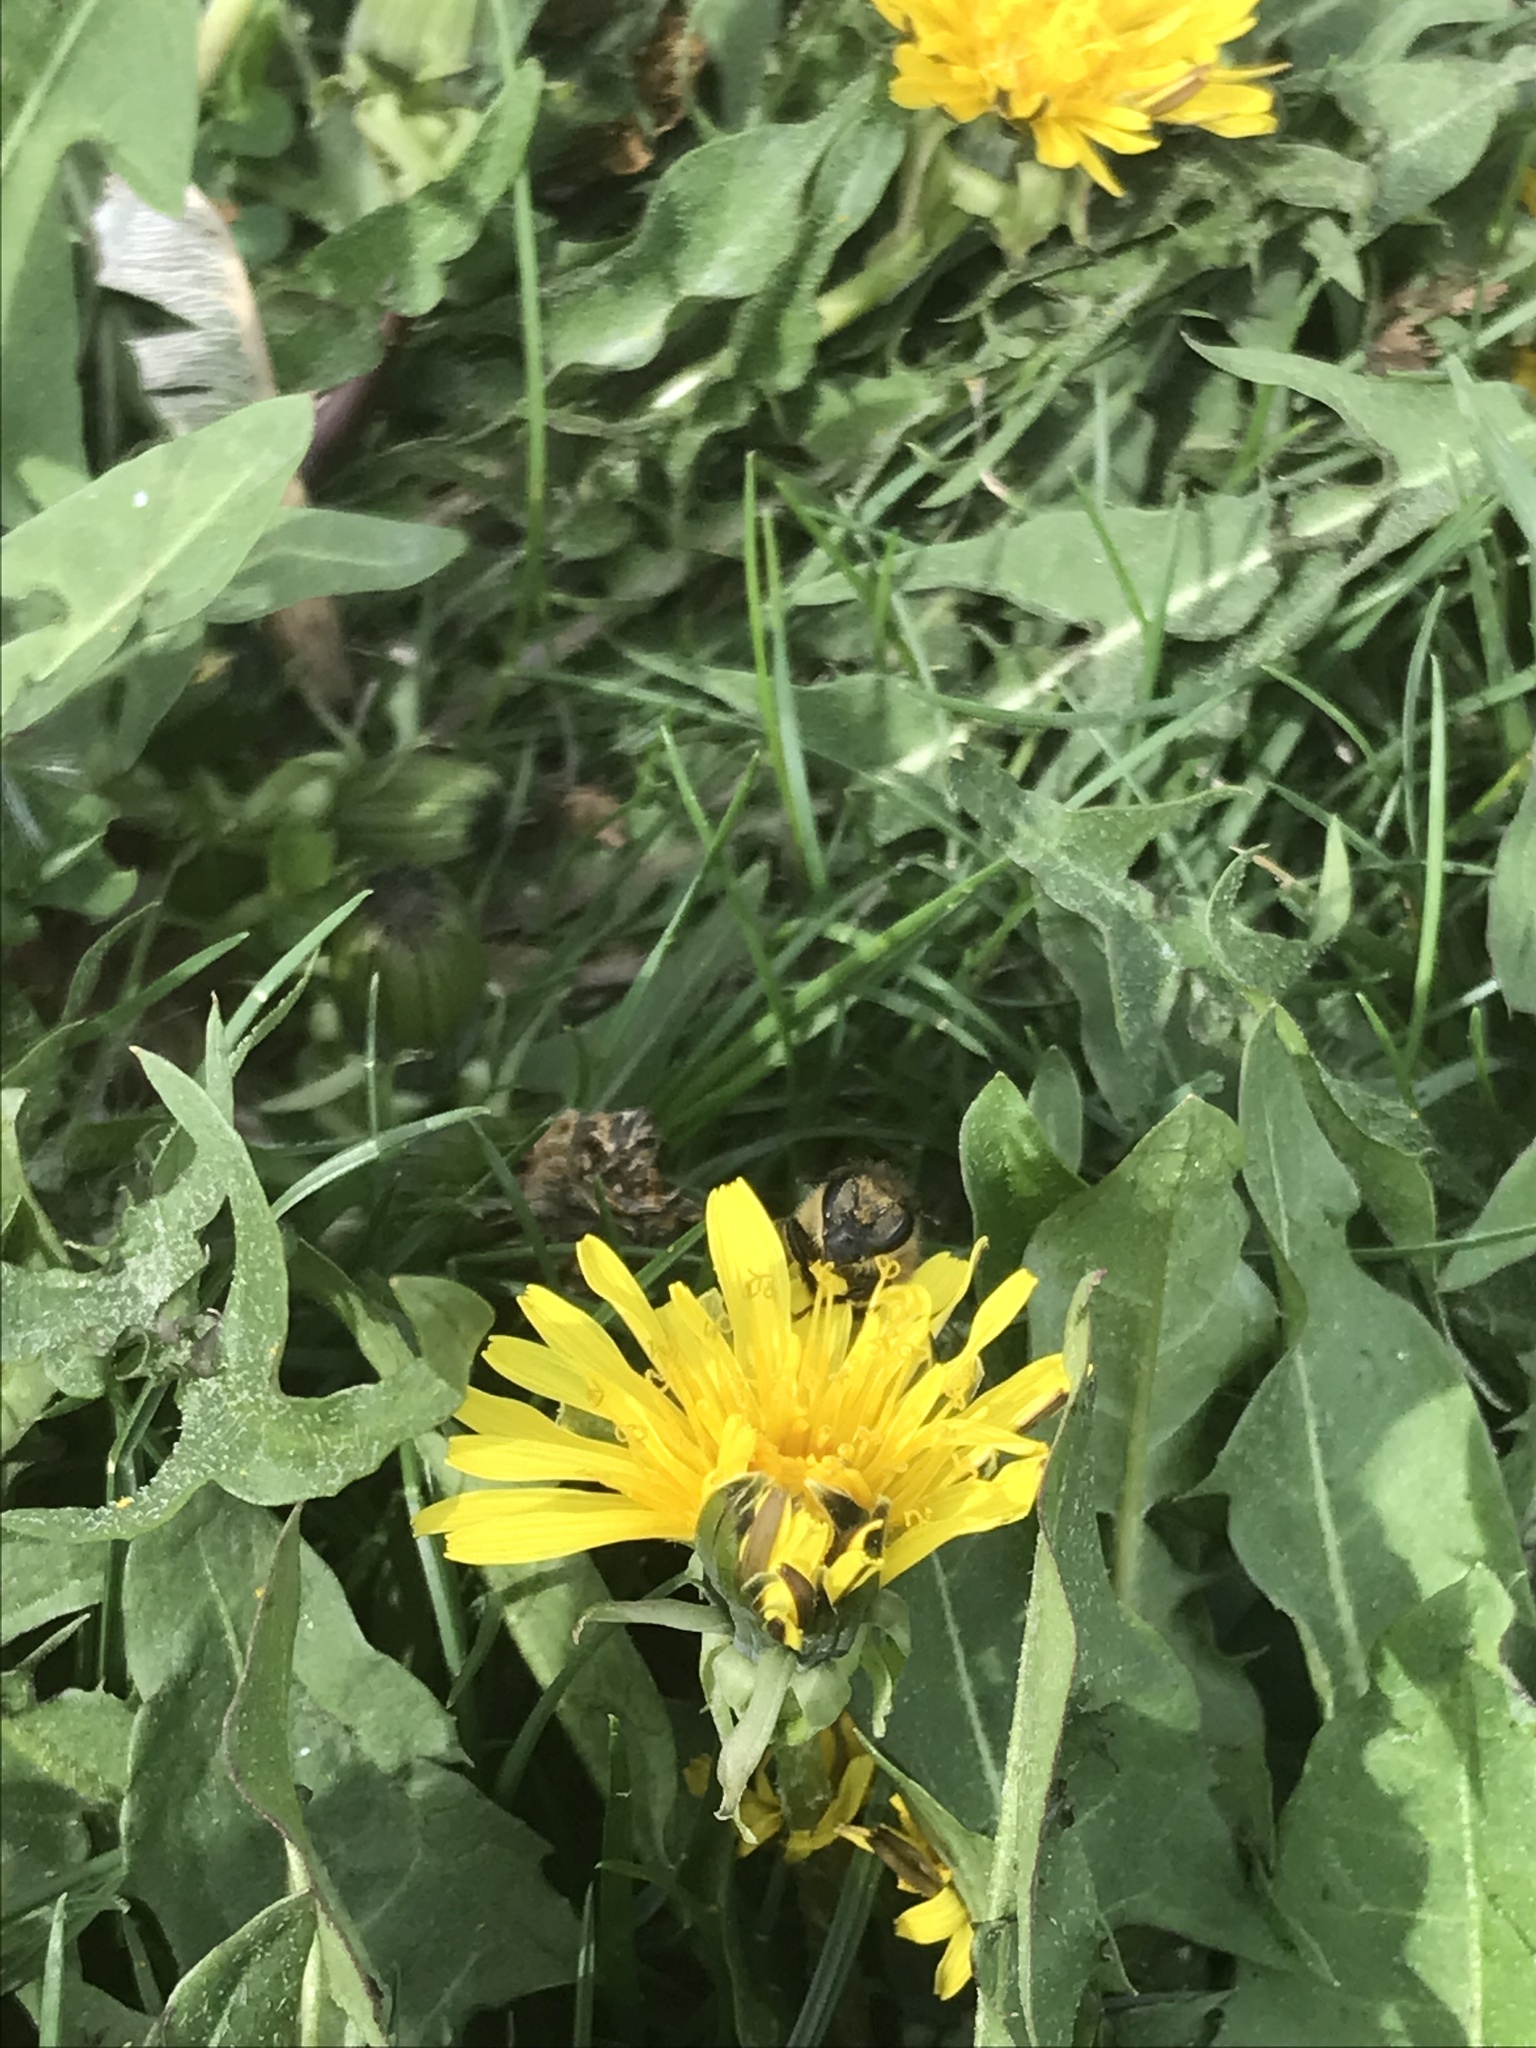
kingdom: Animalia
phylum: Arthropoda
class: Insecta
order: Hymenoptera
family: Apidae
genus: Apis
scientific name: Apis mellifera
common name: Honey bee
